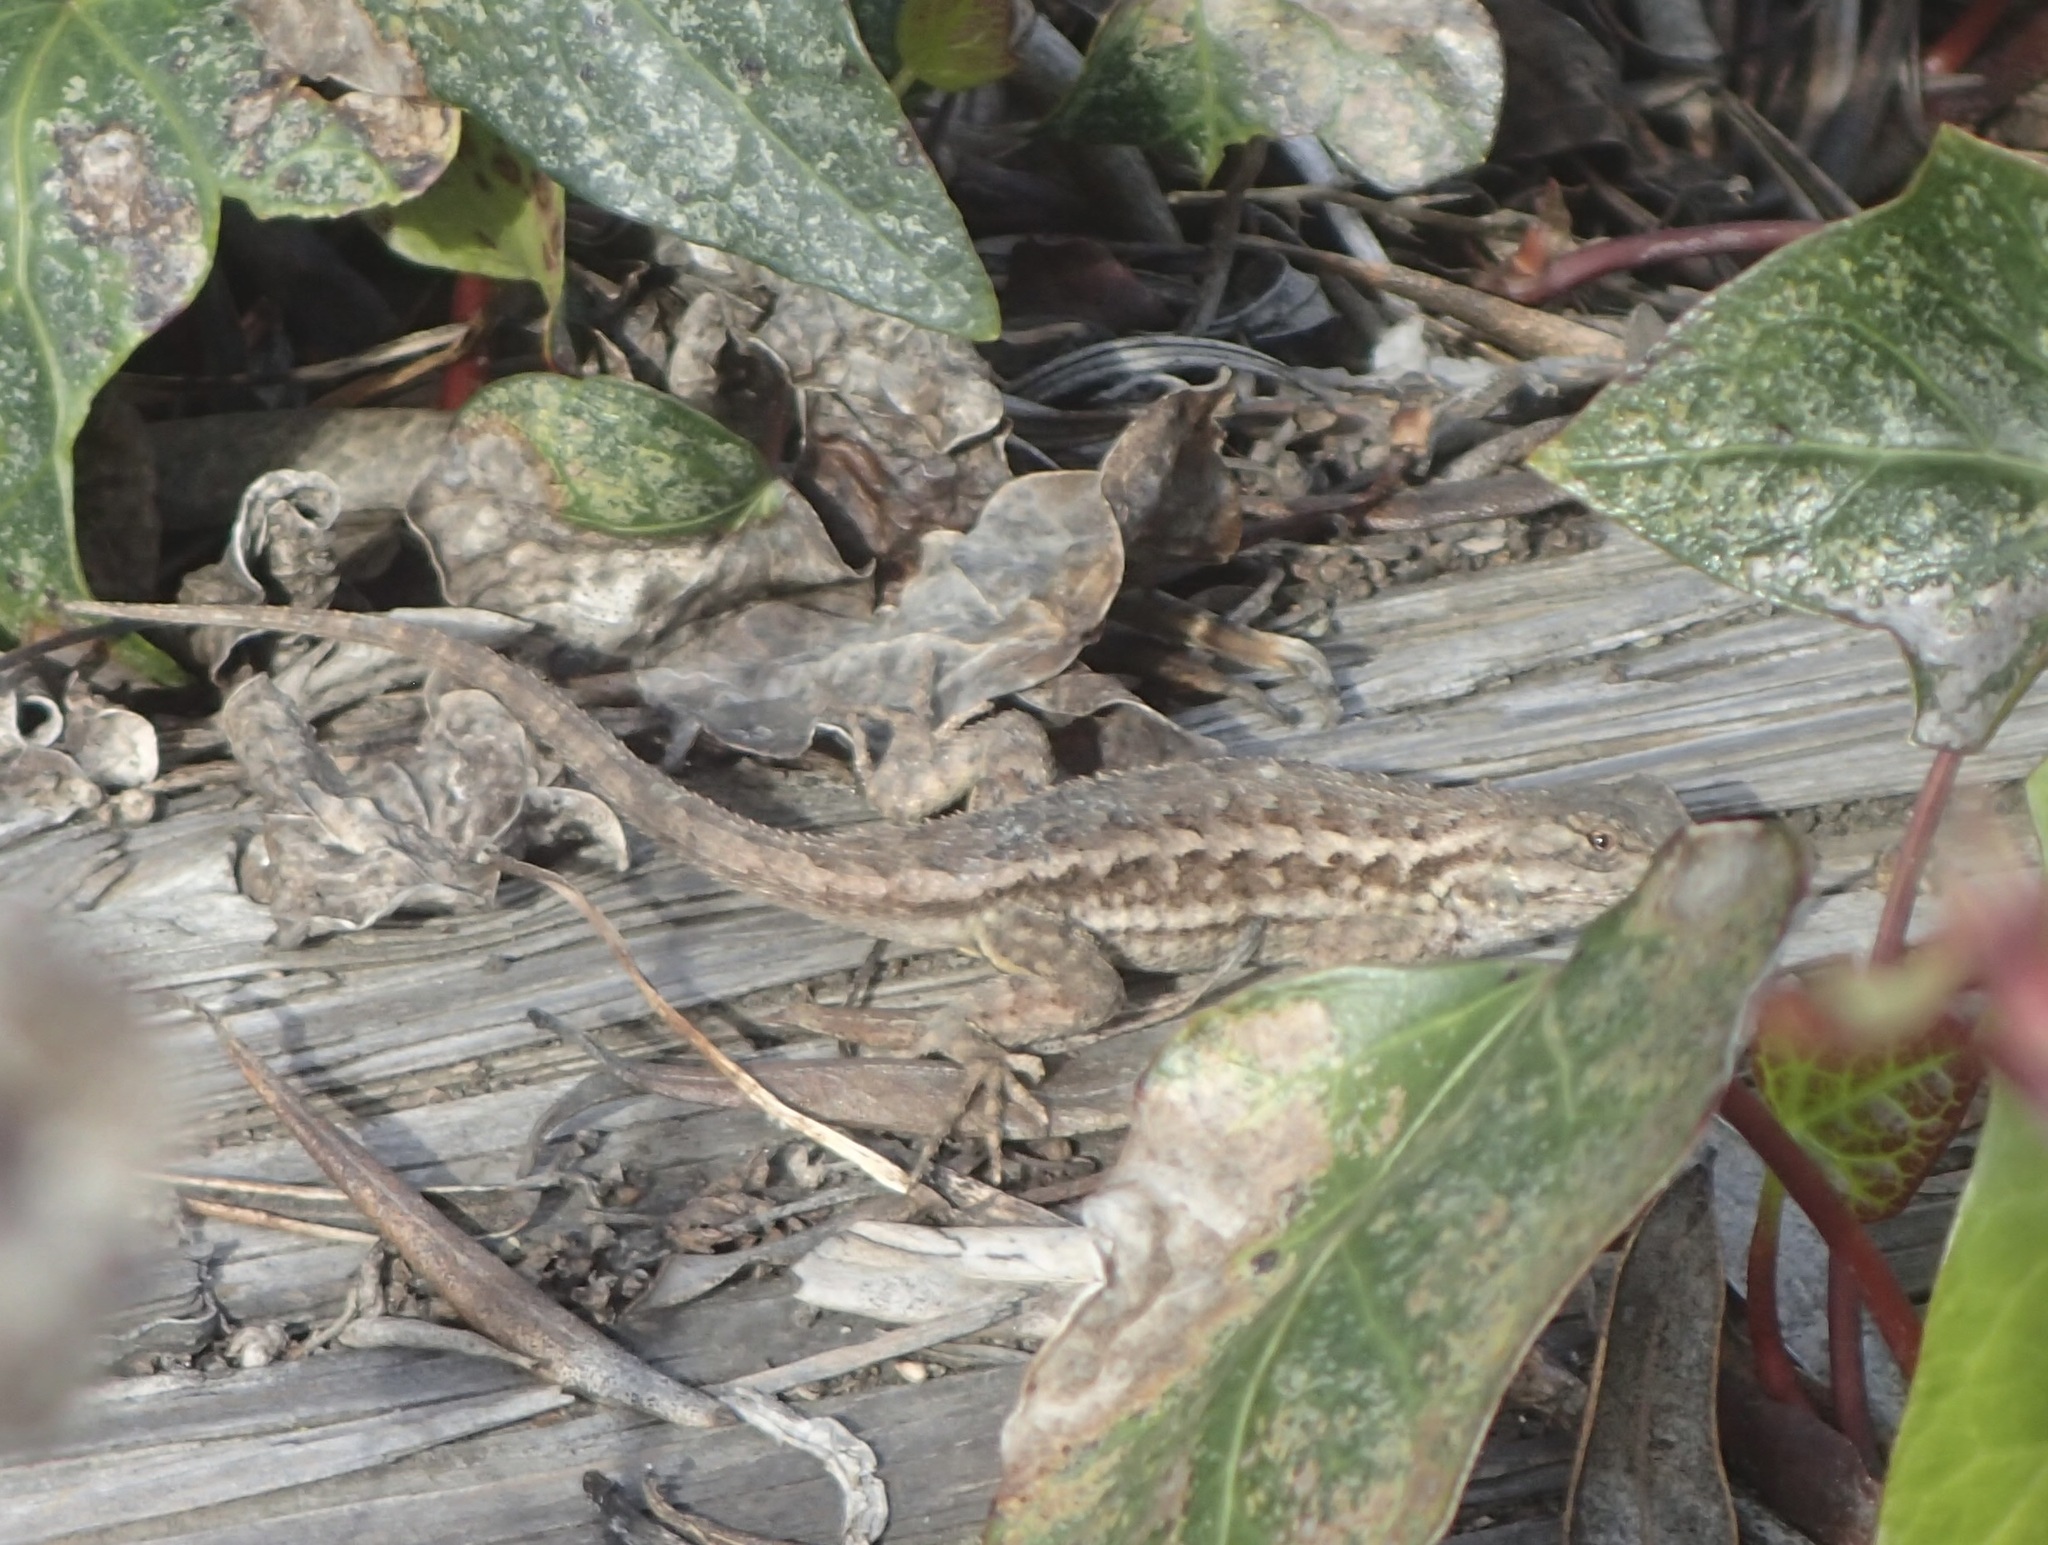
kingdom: Animalia
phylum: Chordata
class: Squamata
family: Phrynosomatidae
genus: Sceloporus
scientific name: Sceloporus occidentalis
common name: Western fence lizard
